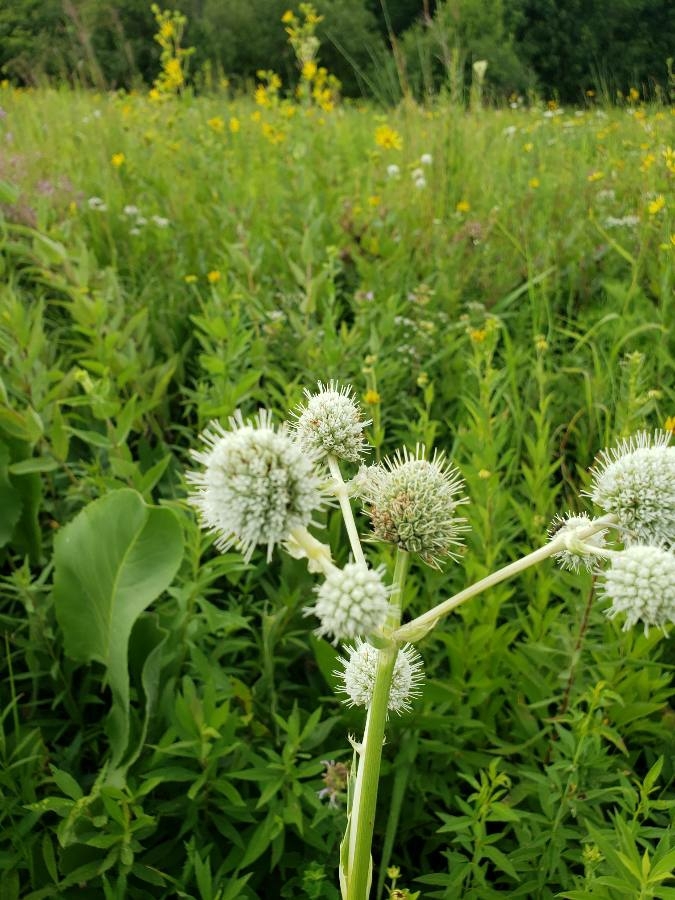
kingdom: Plantae
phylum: Tracheophyta
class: Magnoliopsida
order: Apiales
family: Apiaceae
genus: Eryngium
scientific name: Eryngium yuccifolium
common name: Button eryngo
